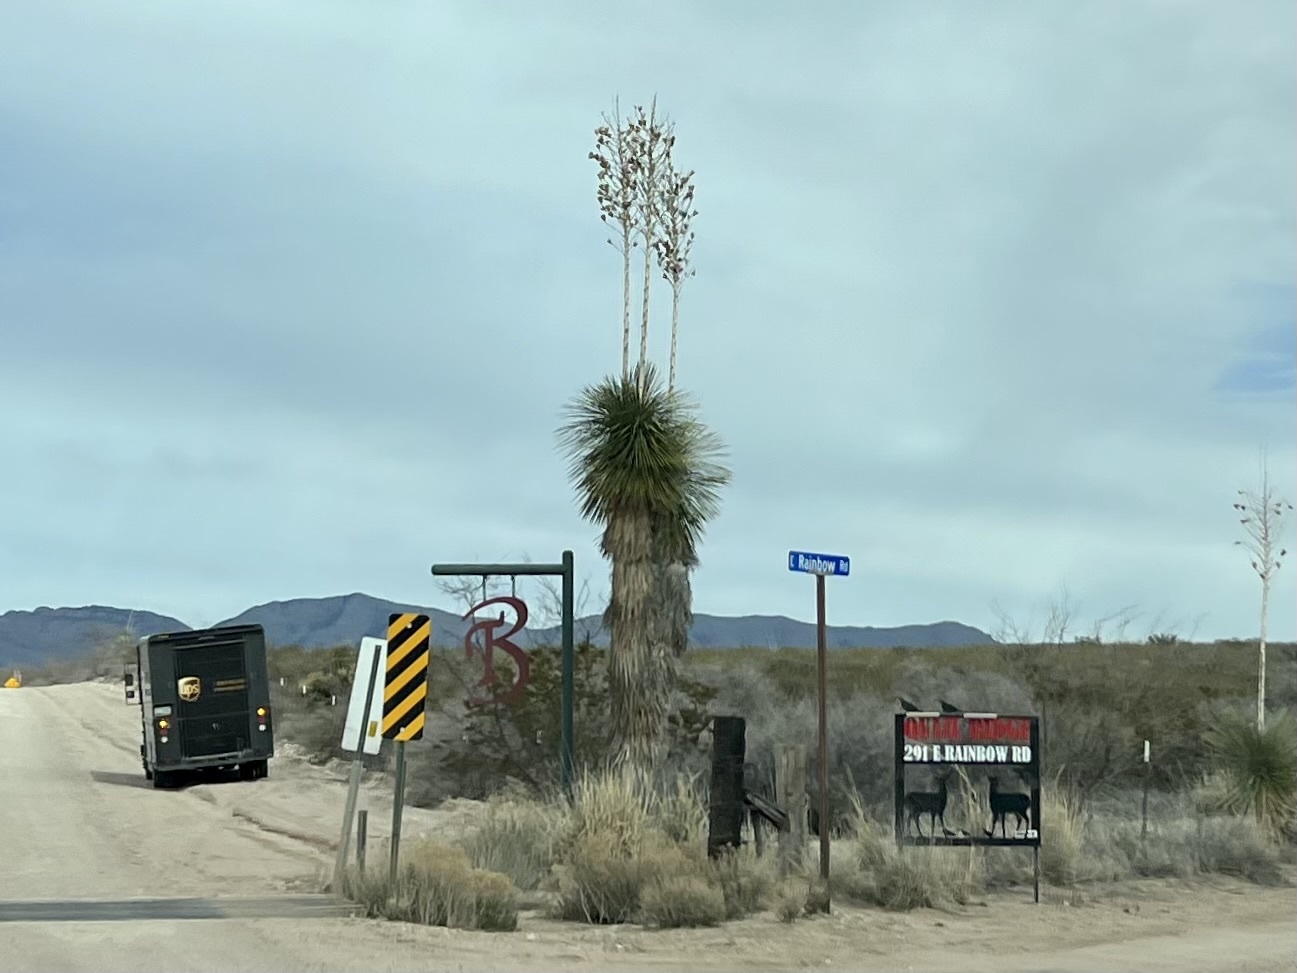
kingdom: Plantae
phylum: Tracheophyta
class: Liliopsida
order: Asparagales
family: Asparagaceae
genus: Yucca
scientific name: Yucca elata
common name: Palmella
